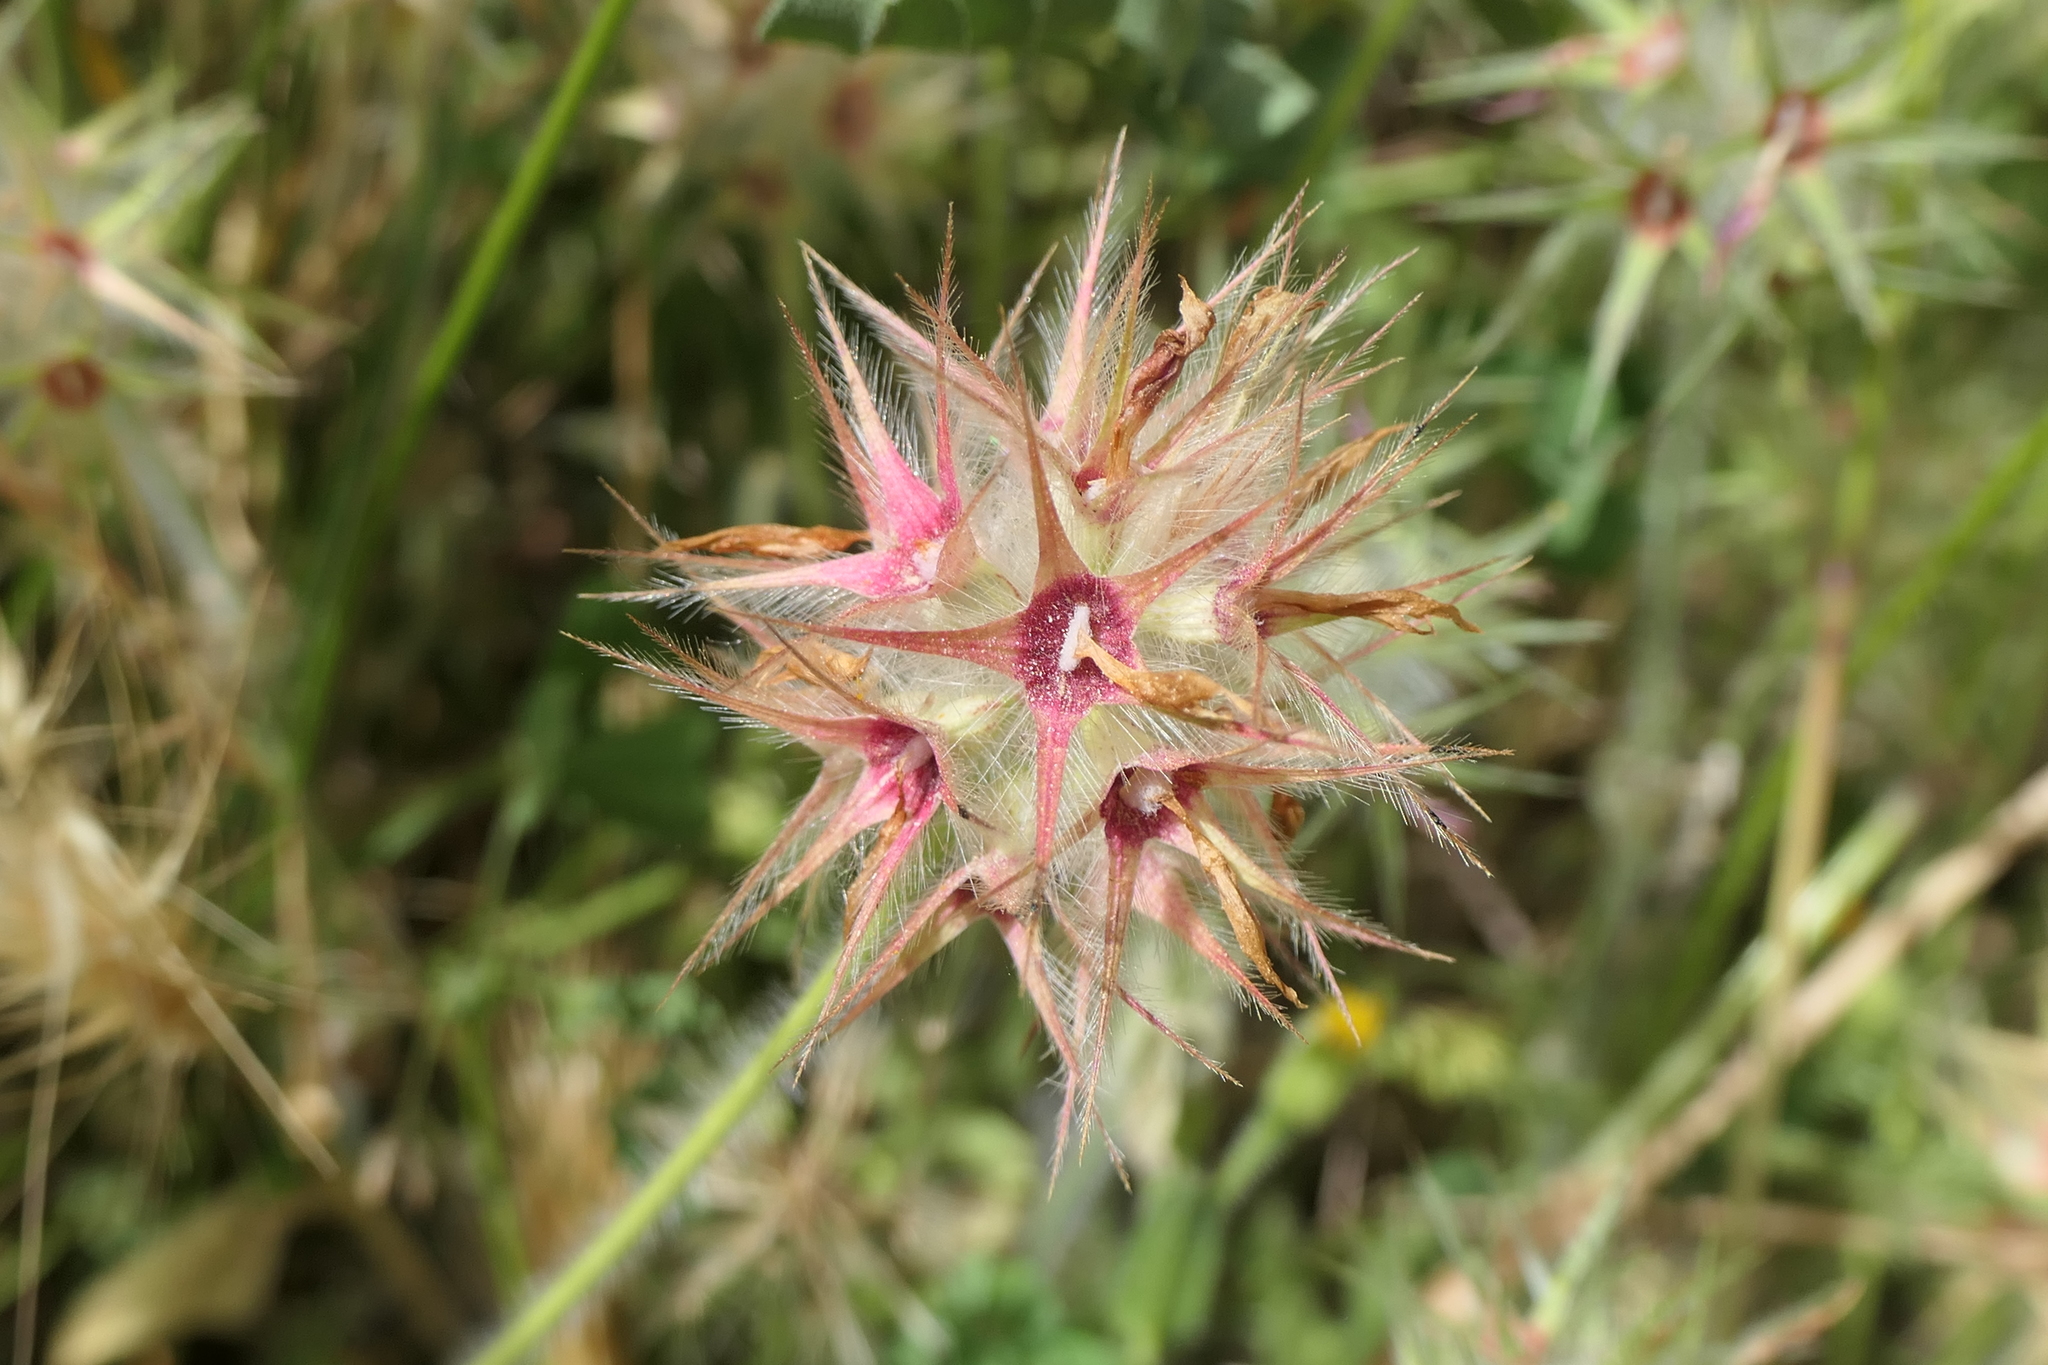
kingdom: Plantae
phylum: Tracheophyta
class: Magnoliopsida
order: Fabales
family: Fabaceae
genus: Trifolium
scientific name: Trifolium stellatum
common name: Starry clover
